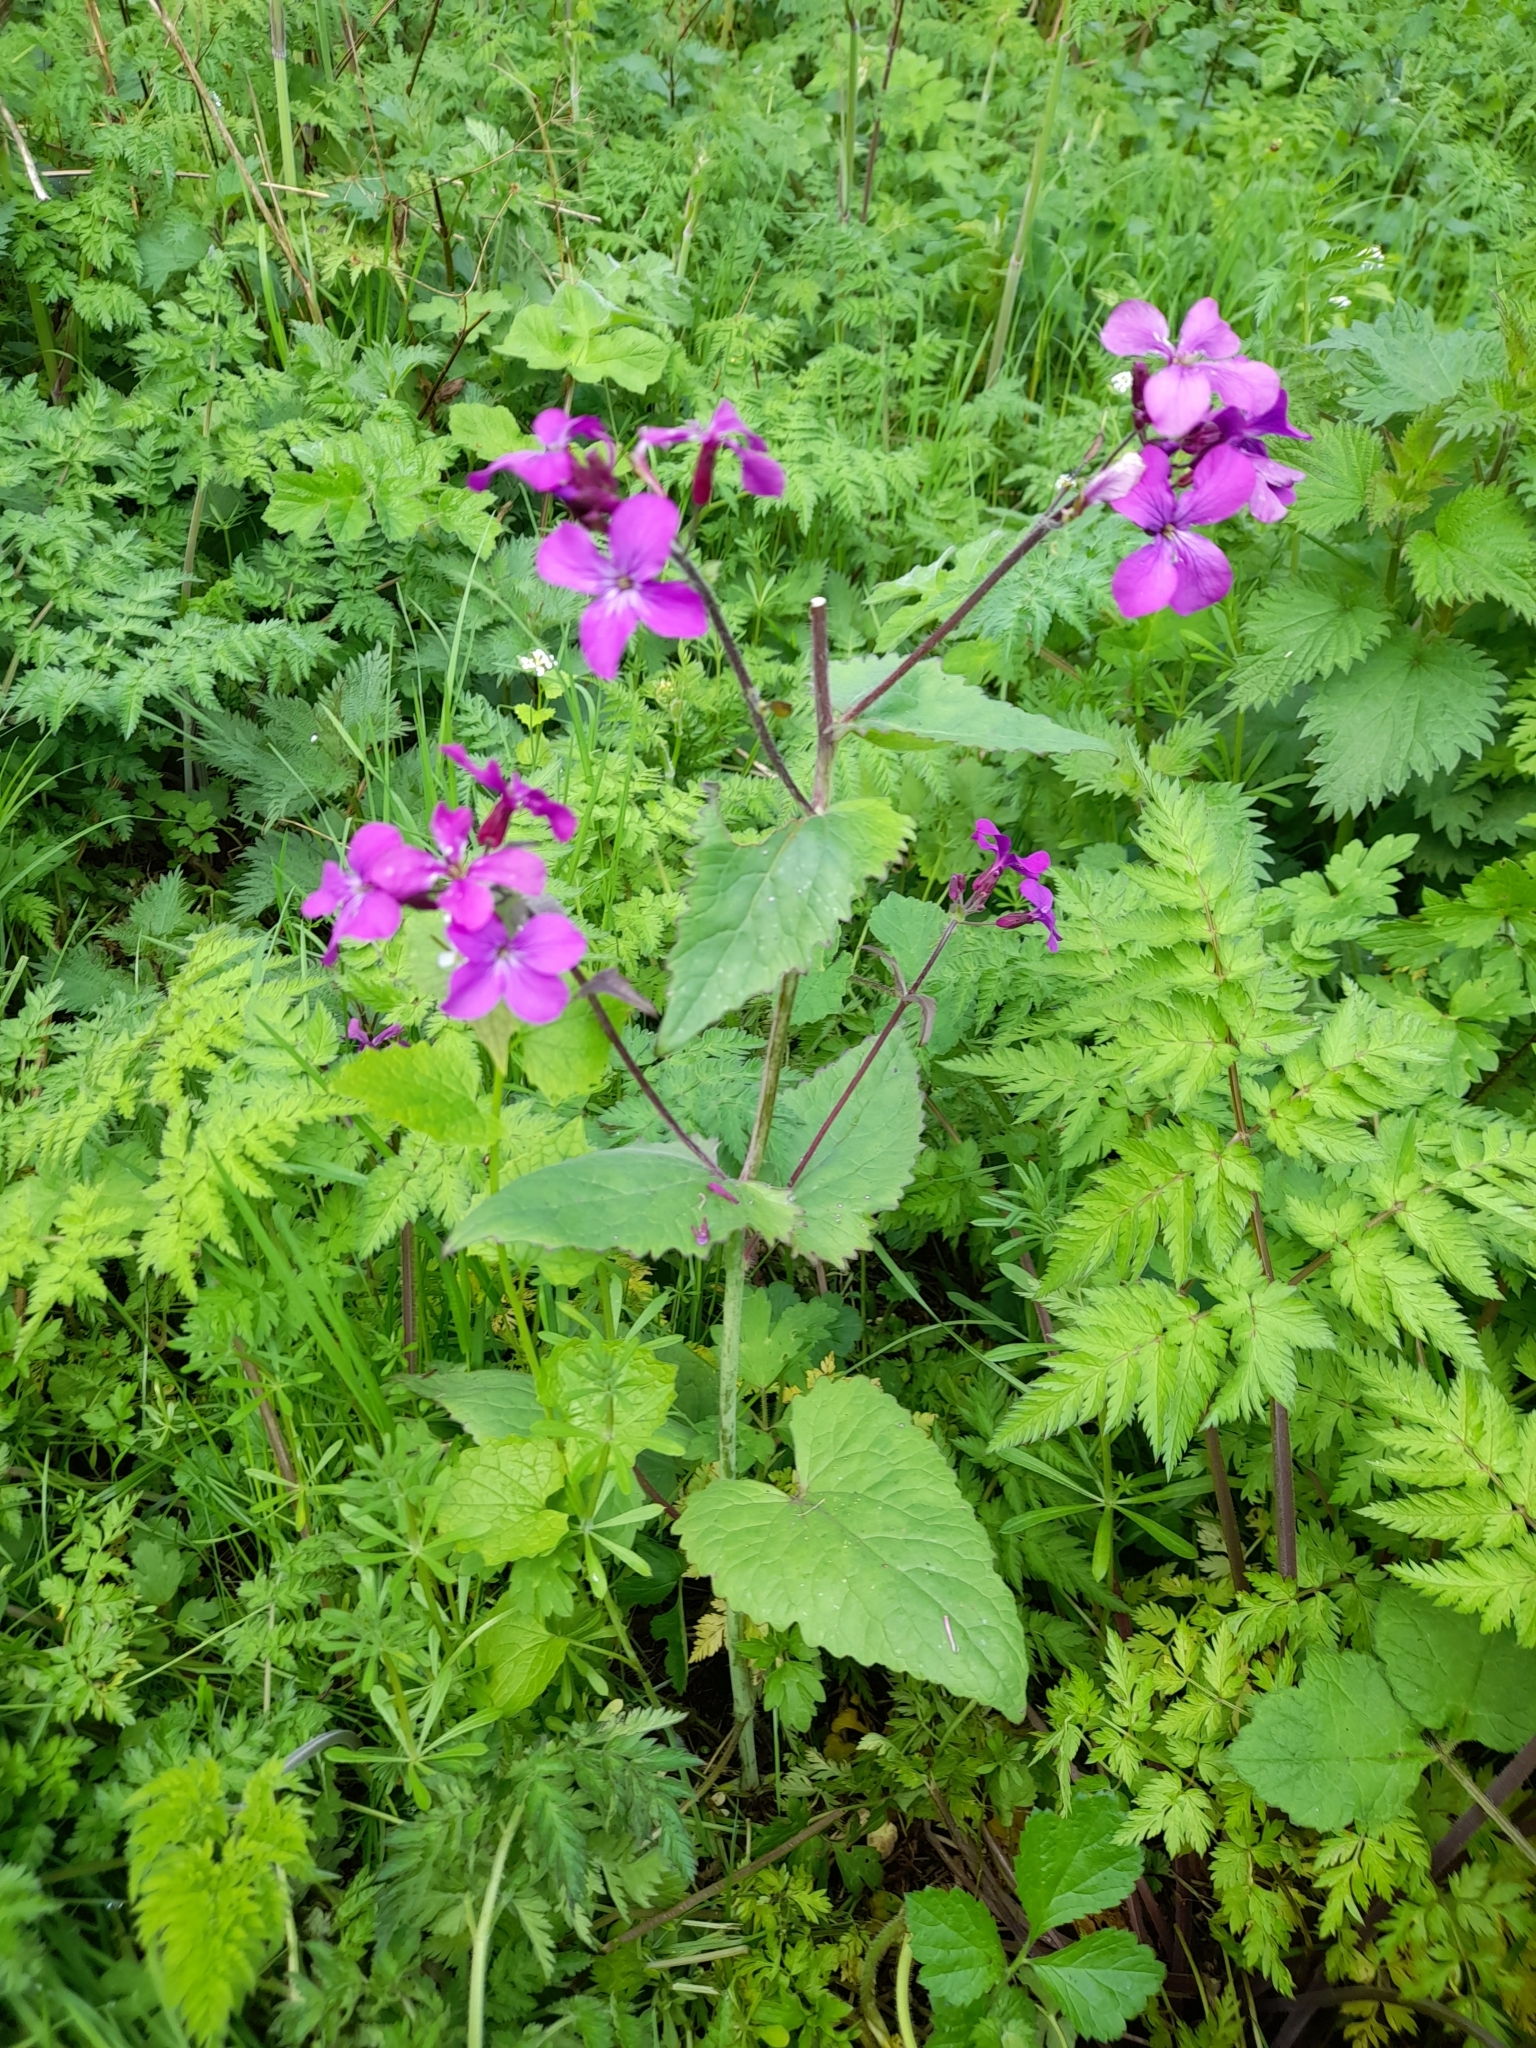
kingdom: Plantae
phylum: Tracheophyta
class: Magnoliopsida
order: Brassicales
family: Brassicaceae
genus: Lunaria
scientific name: Lunaria annua
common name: Honesty
